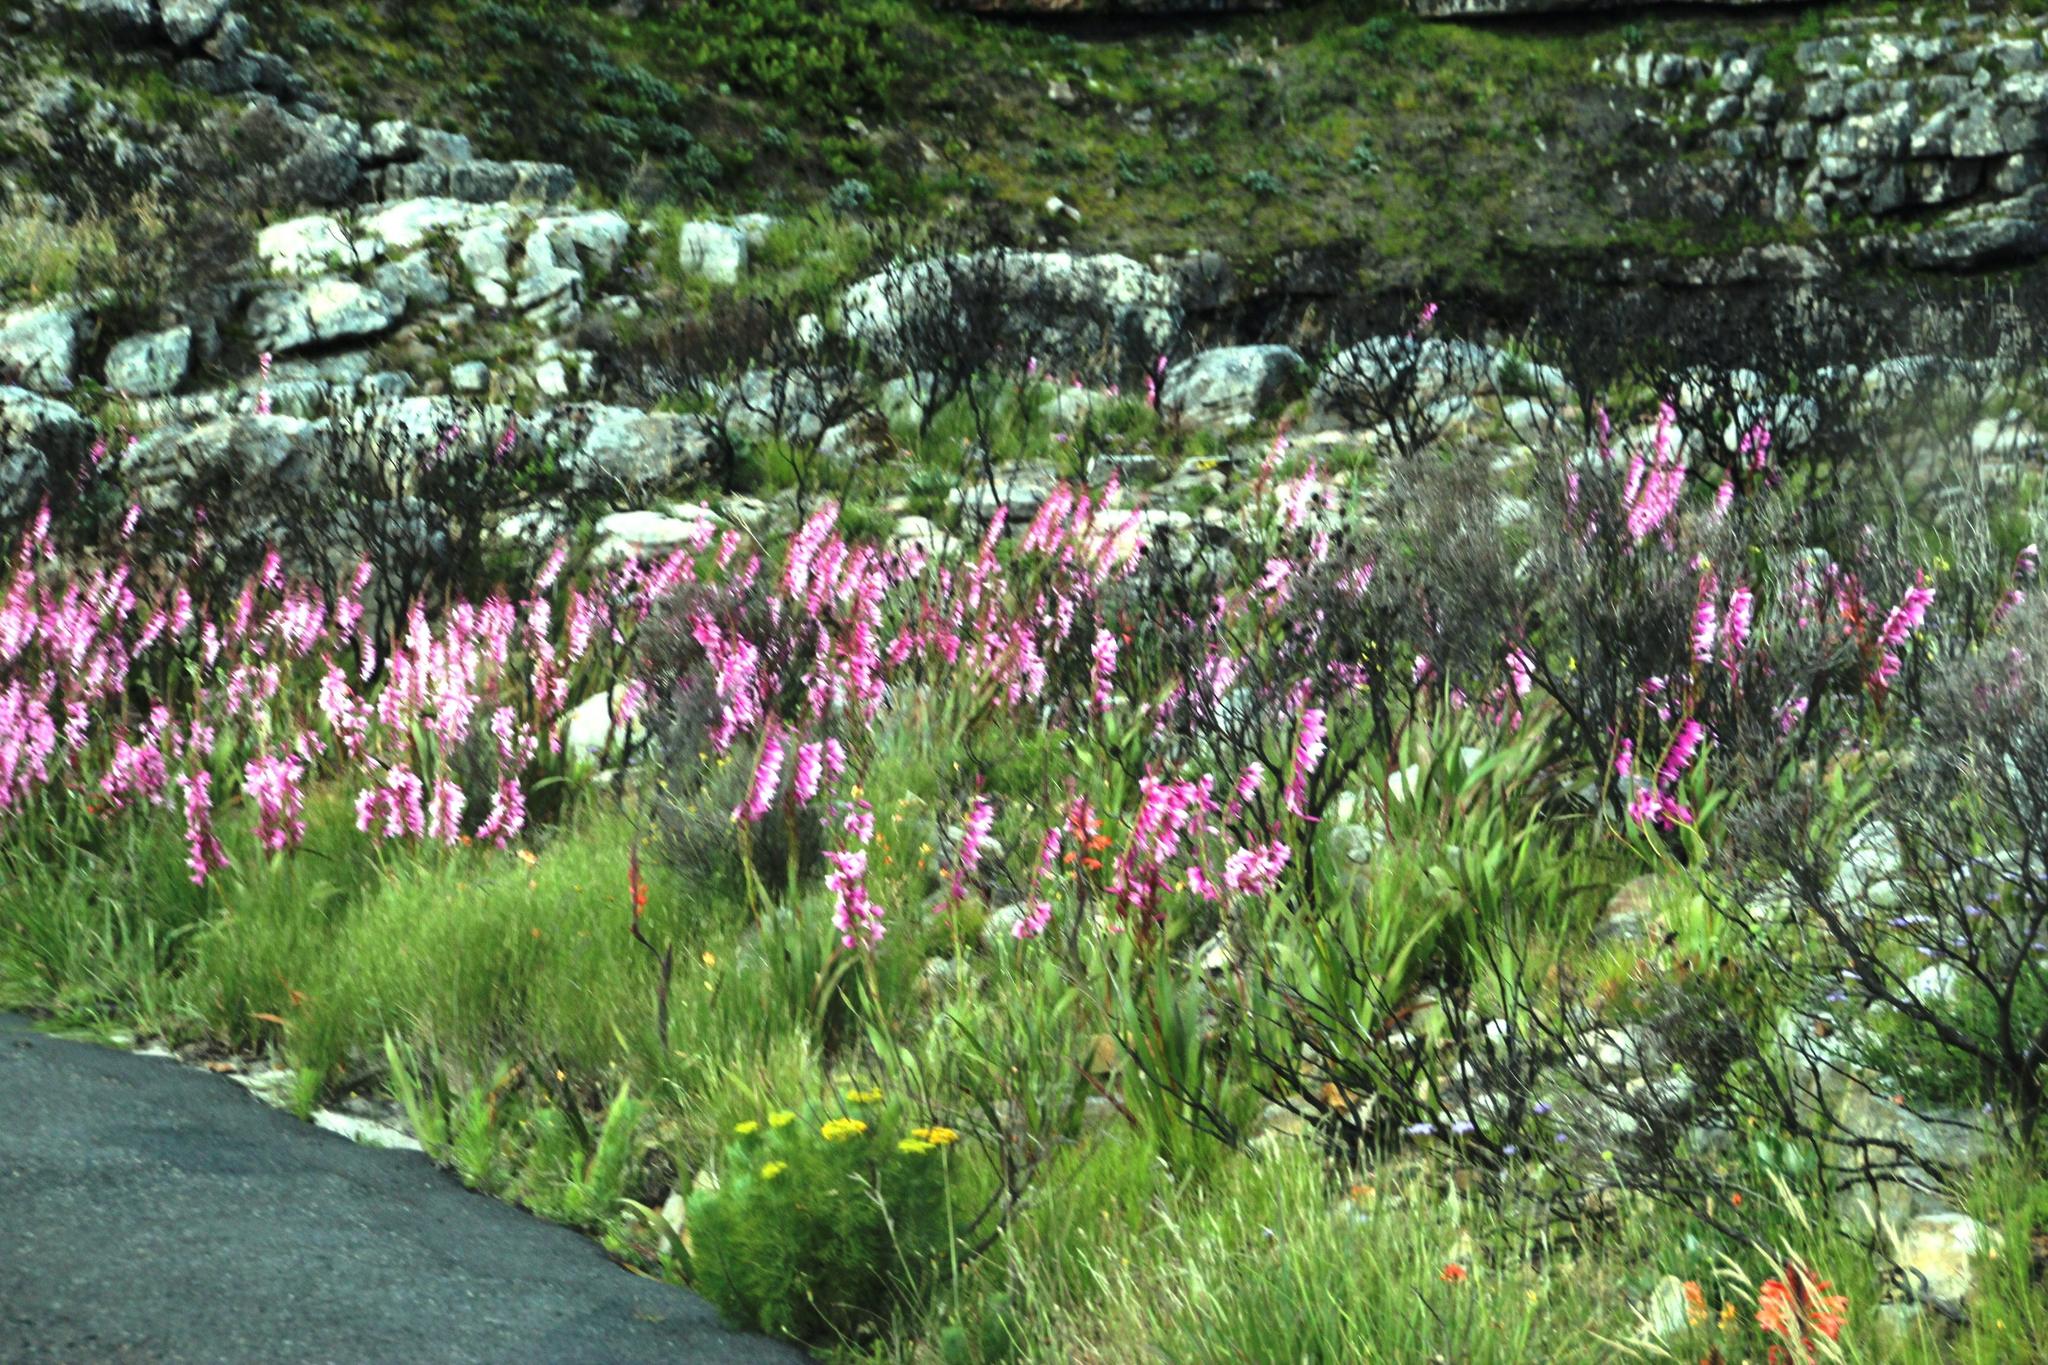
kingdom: Plantae
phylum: Tracheophyta
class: Liliopsida
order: Asparagales
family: Iridaceae
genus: Watsonia
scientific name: Watsonia borbonica
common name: Bugle-lily
